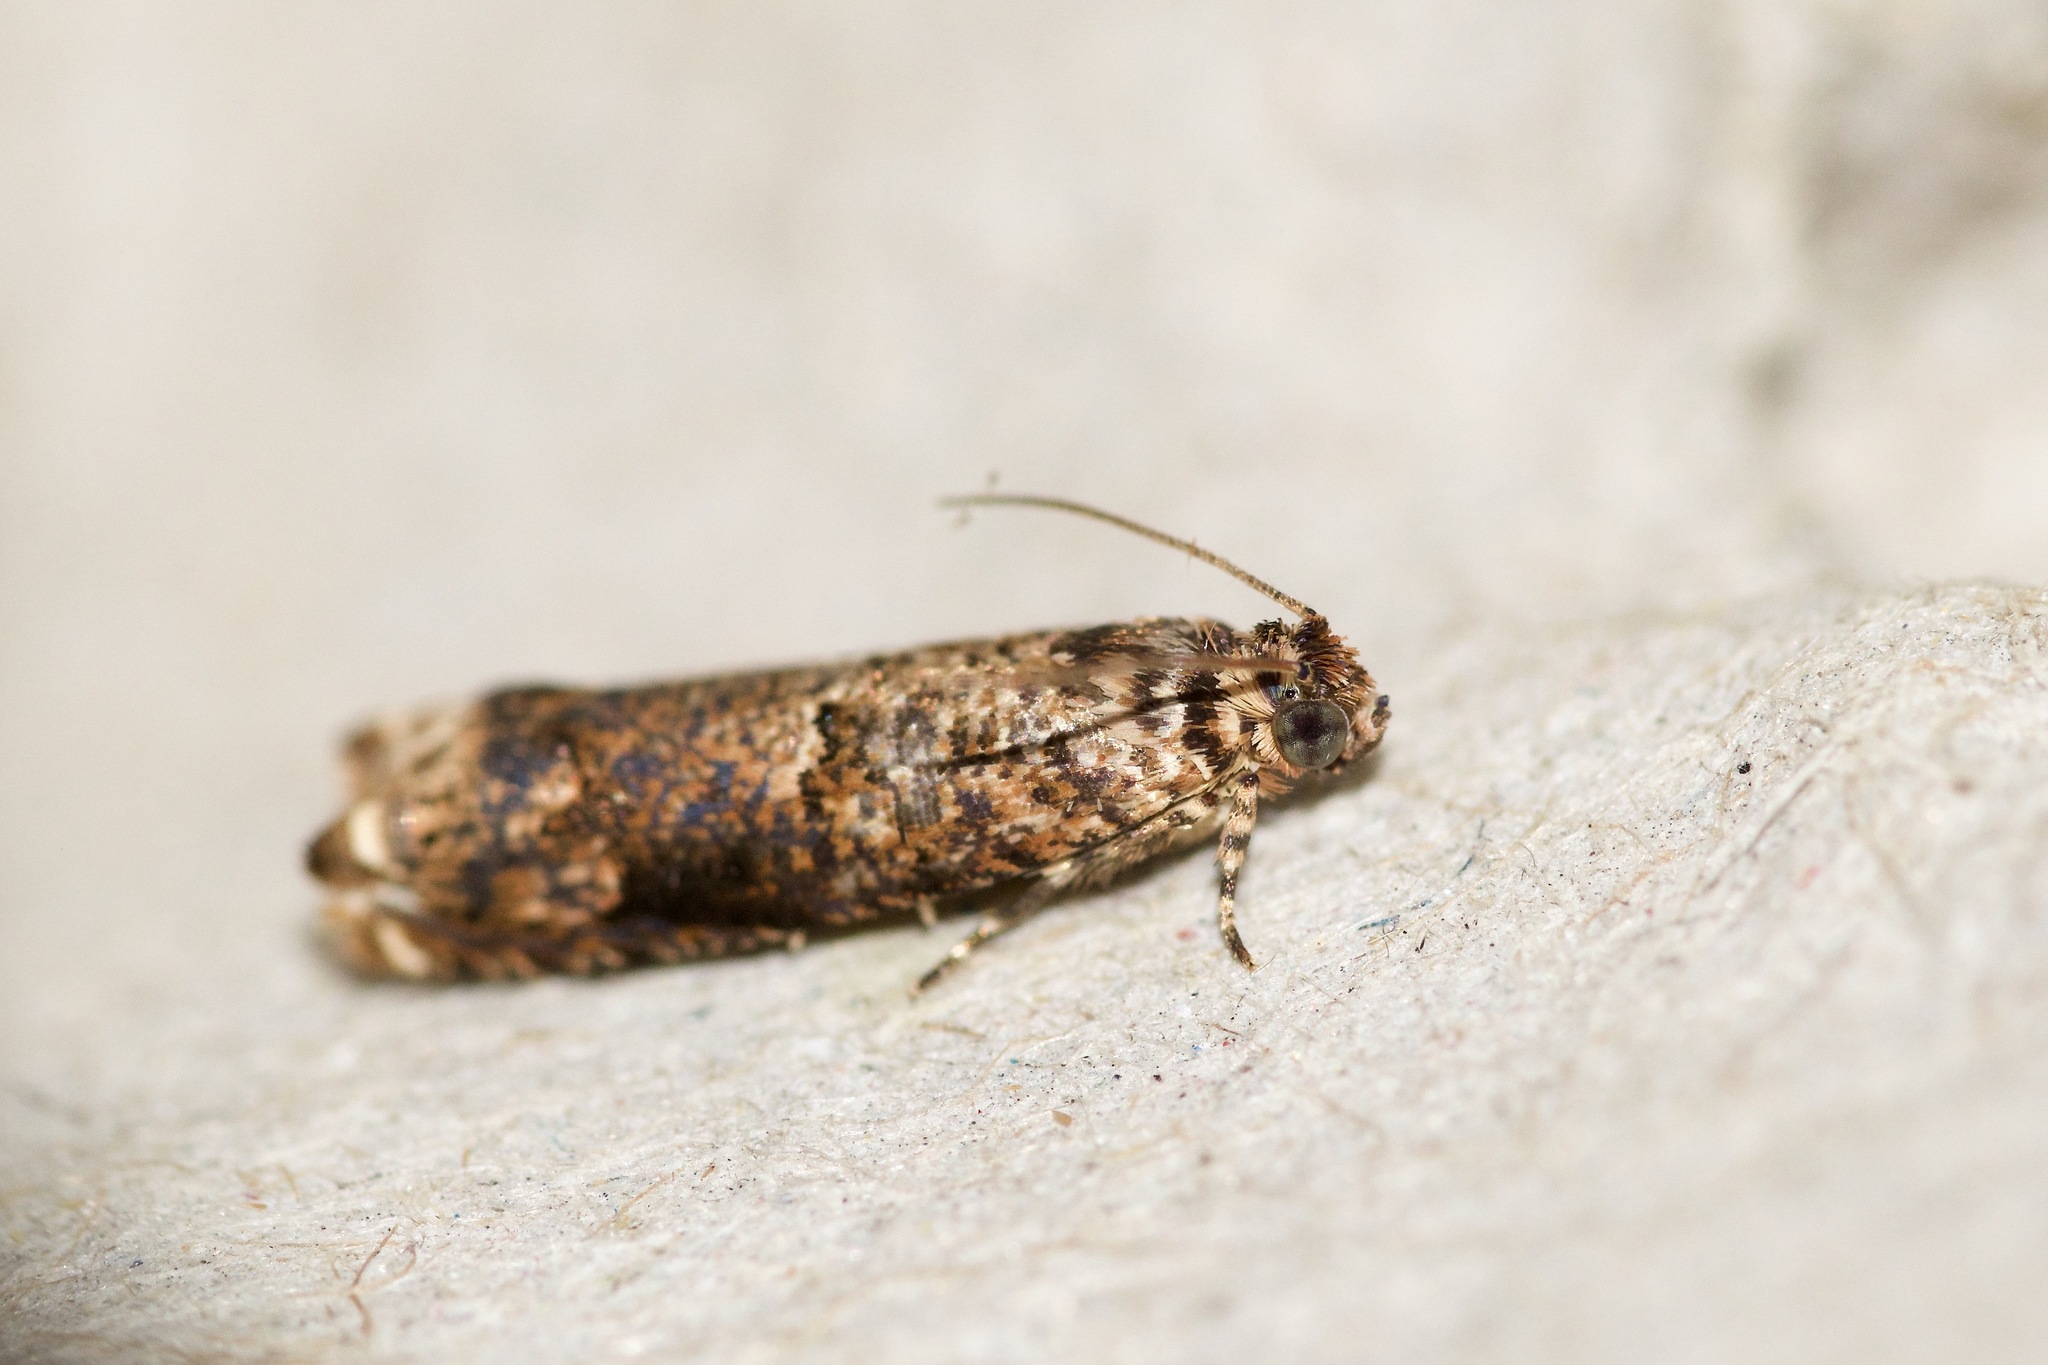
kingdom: Animalia
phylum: Arthropoda
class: Insecta
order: Lepidoptera
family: Tortricidae
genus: Episimus
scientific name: Episimus argutana
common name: Sumac leaftier moth
